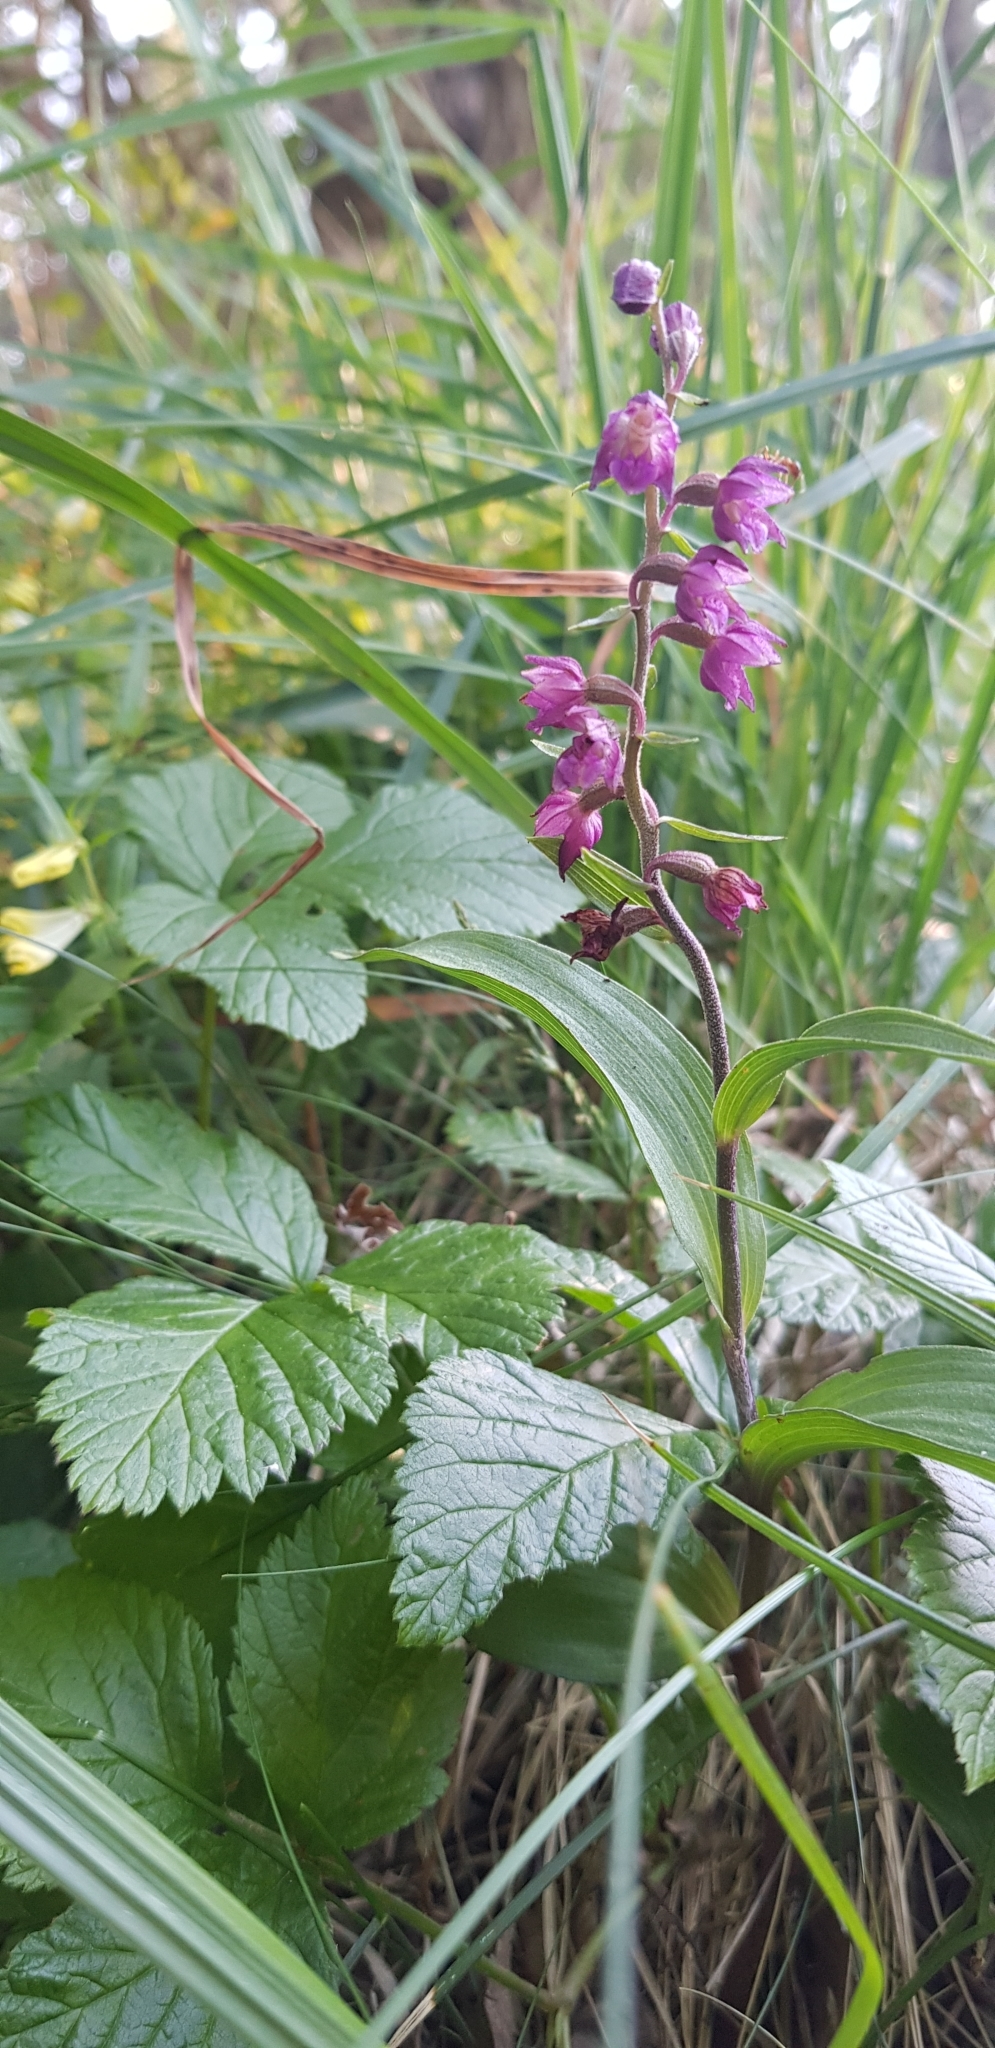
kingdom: Plantae
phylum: Tracheophyta
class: Liliopsida
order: Asparagales
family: Orchidaceae
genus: Epipactis
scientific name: Epipactis atrorubens
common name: Dark-red helleborine
